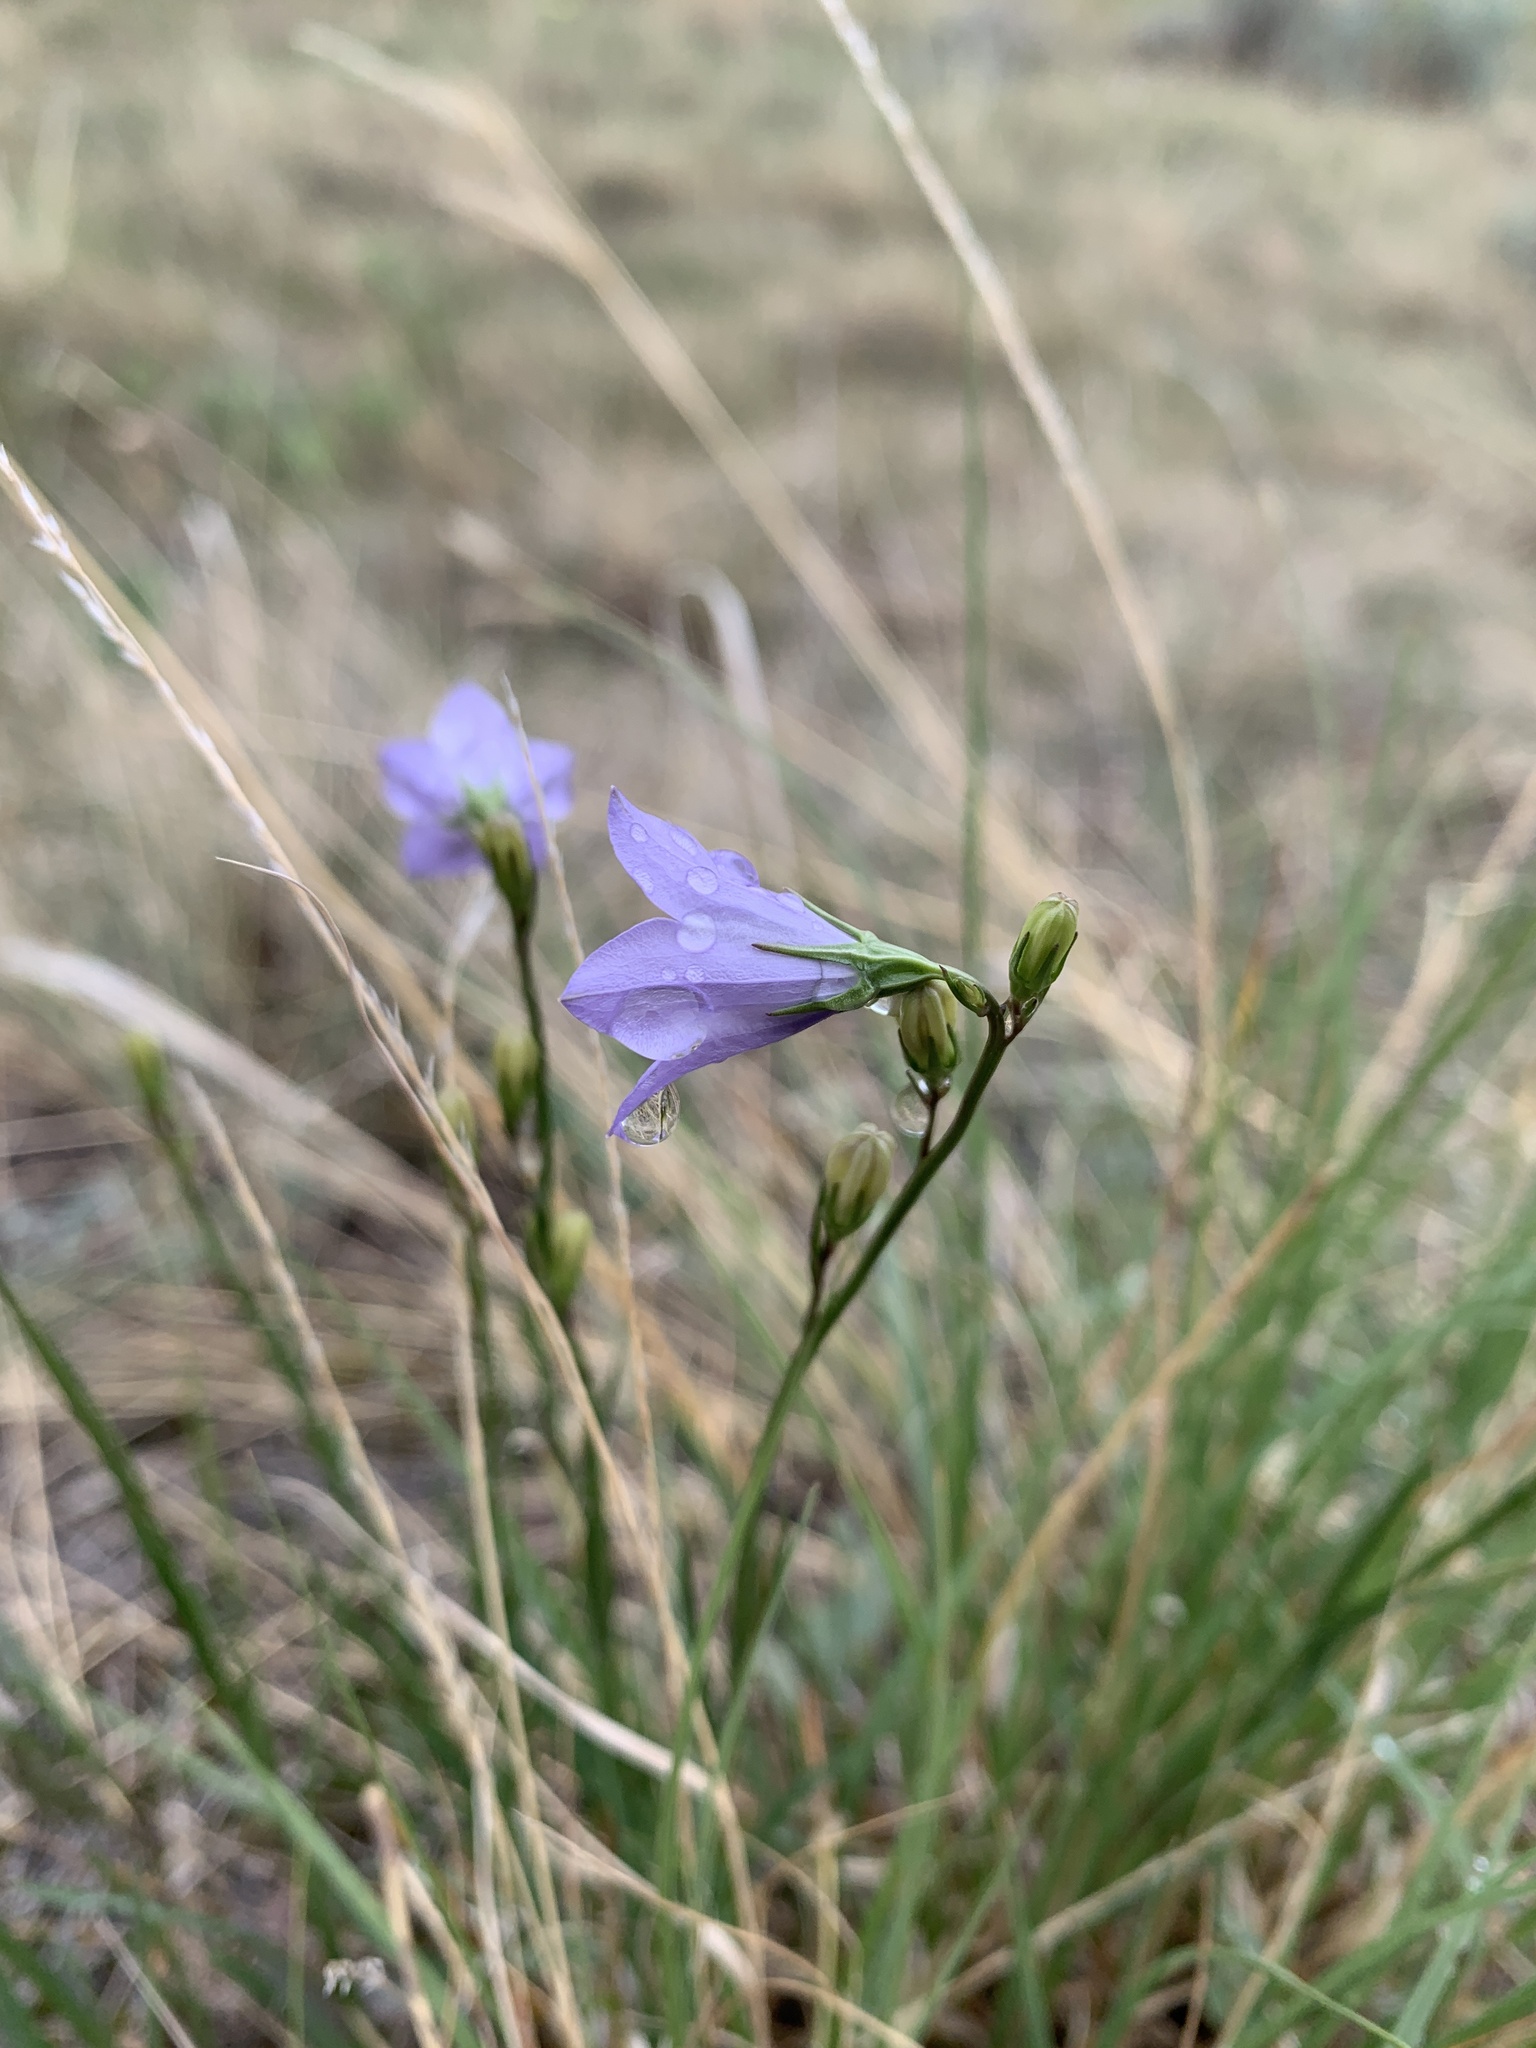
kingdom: Plantae
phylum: Tracheophyta
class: Magnoliopsida
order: Asterales
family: Campanulaceae
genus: Campanula
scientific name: Campanula alaskana
